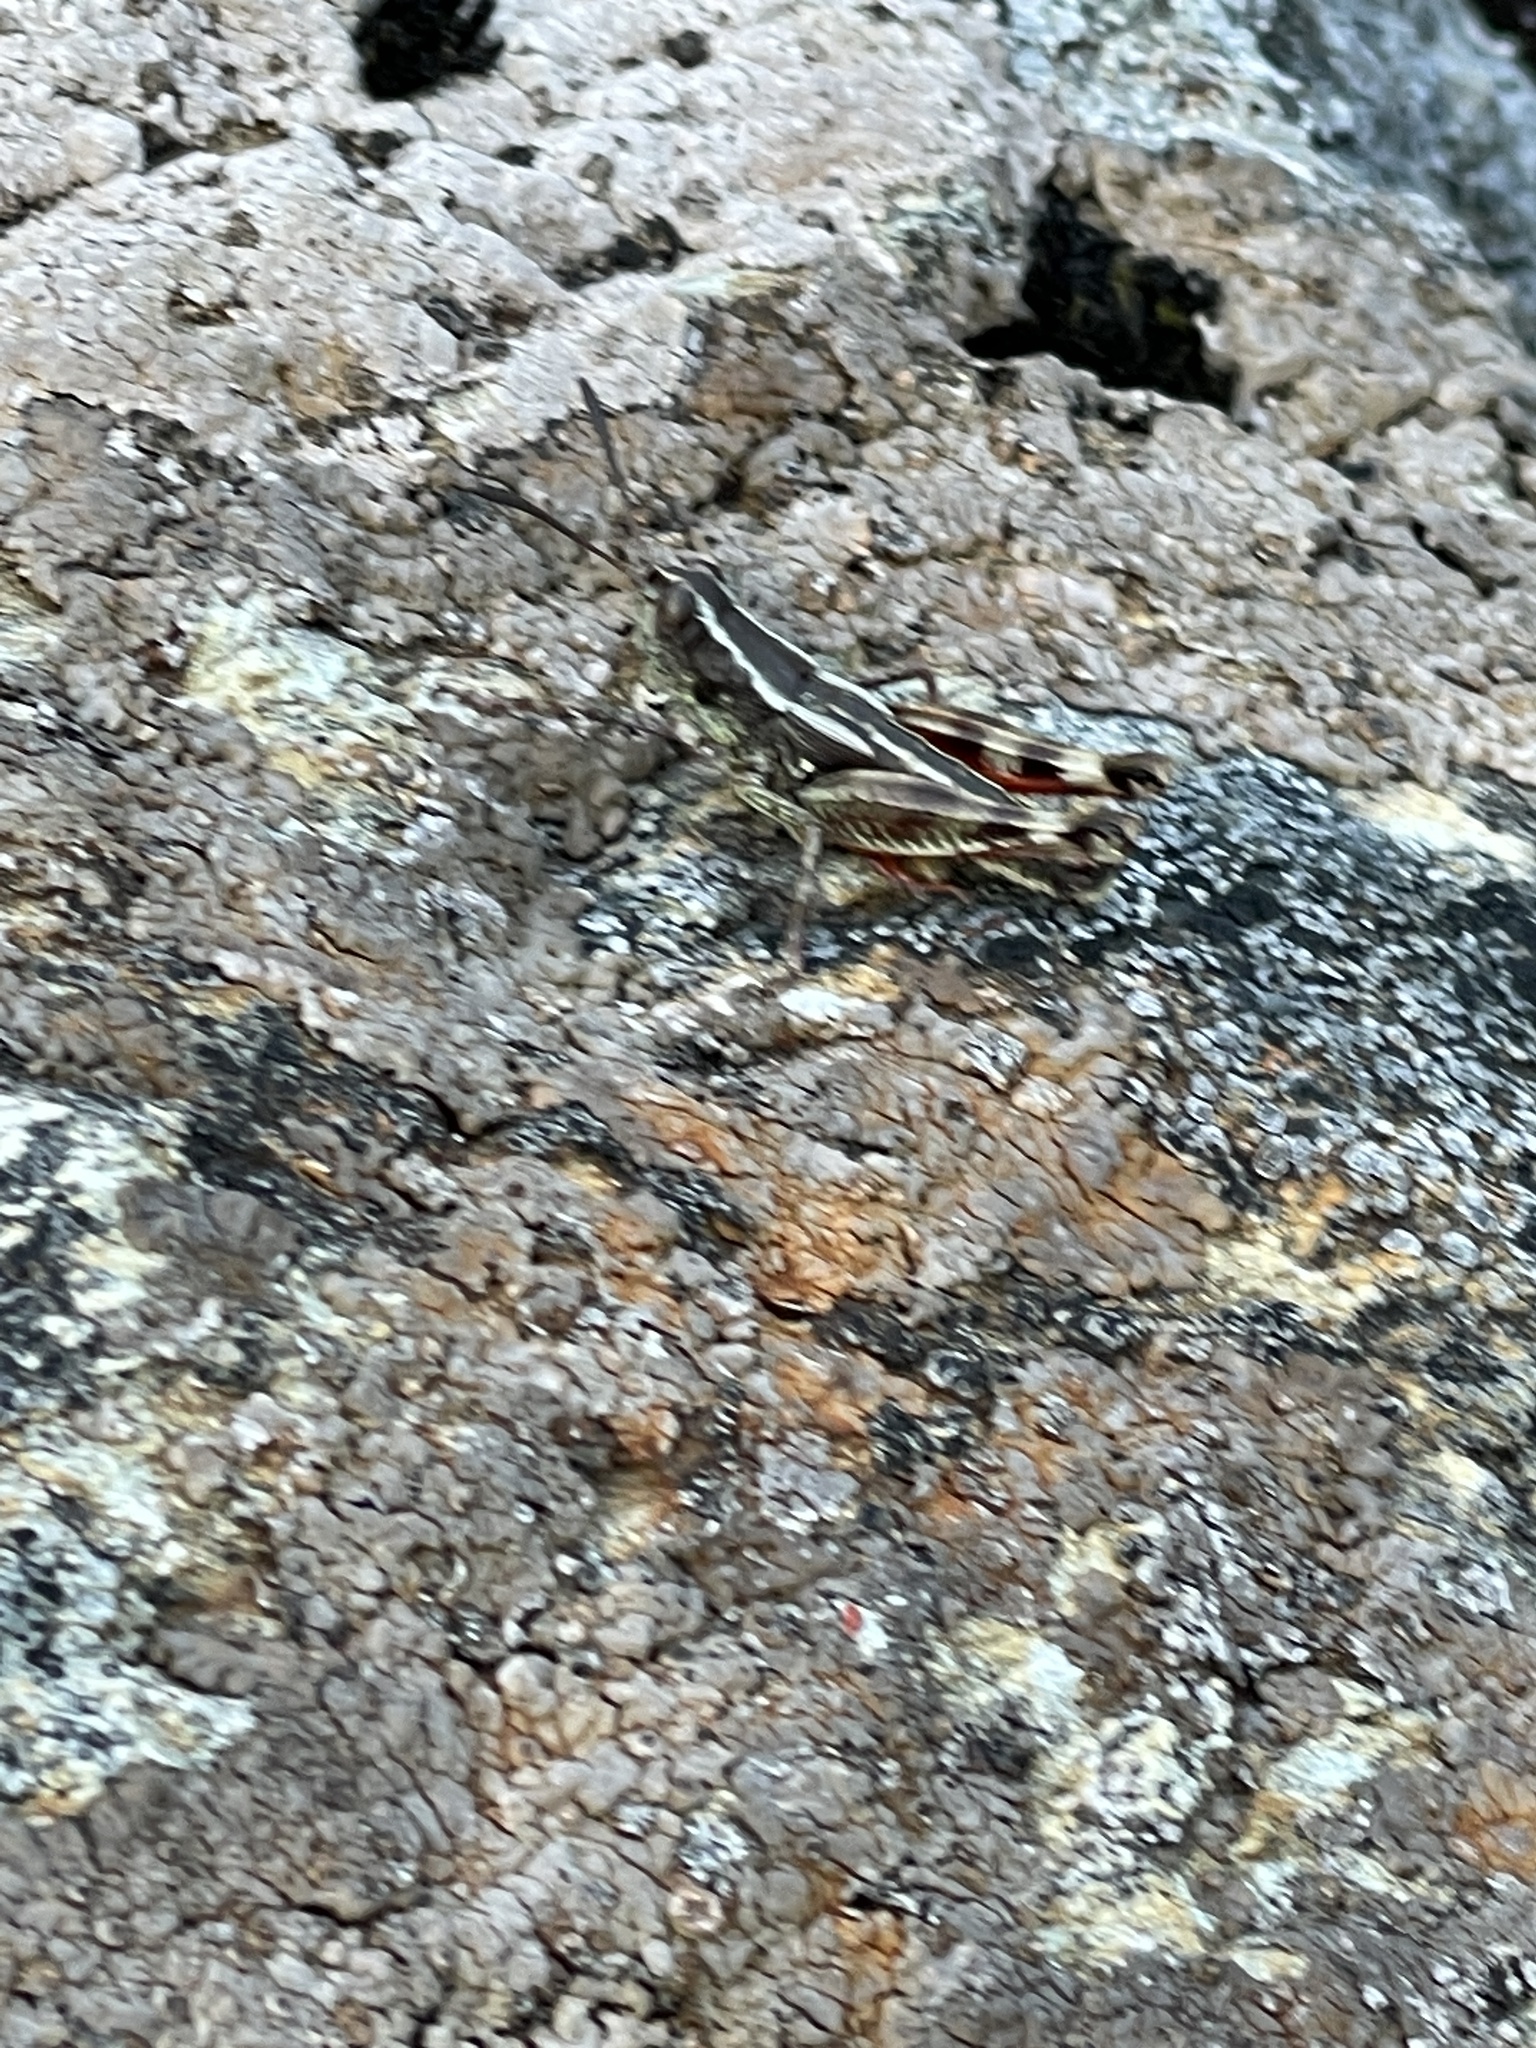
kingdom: Animalia
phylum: Arthropoda
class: Insecta
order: Orthoptera
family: Acrididae
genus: Sigaus
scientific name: Sigaus australis
